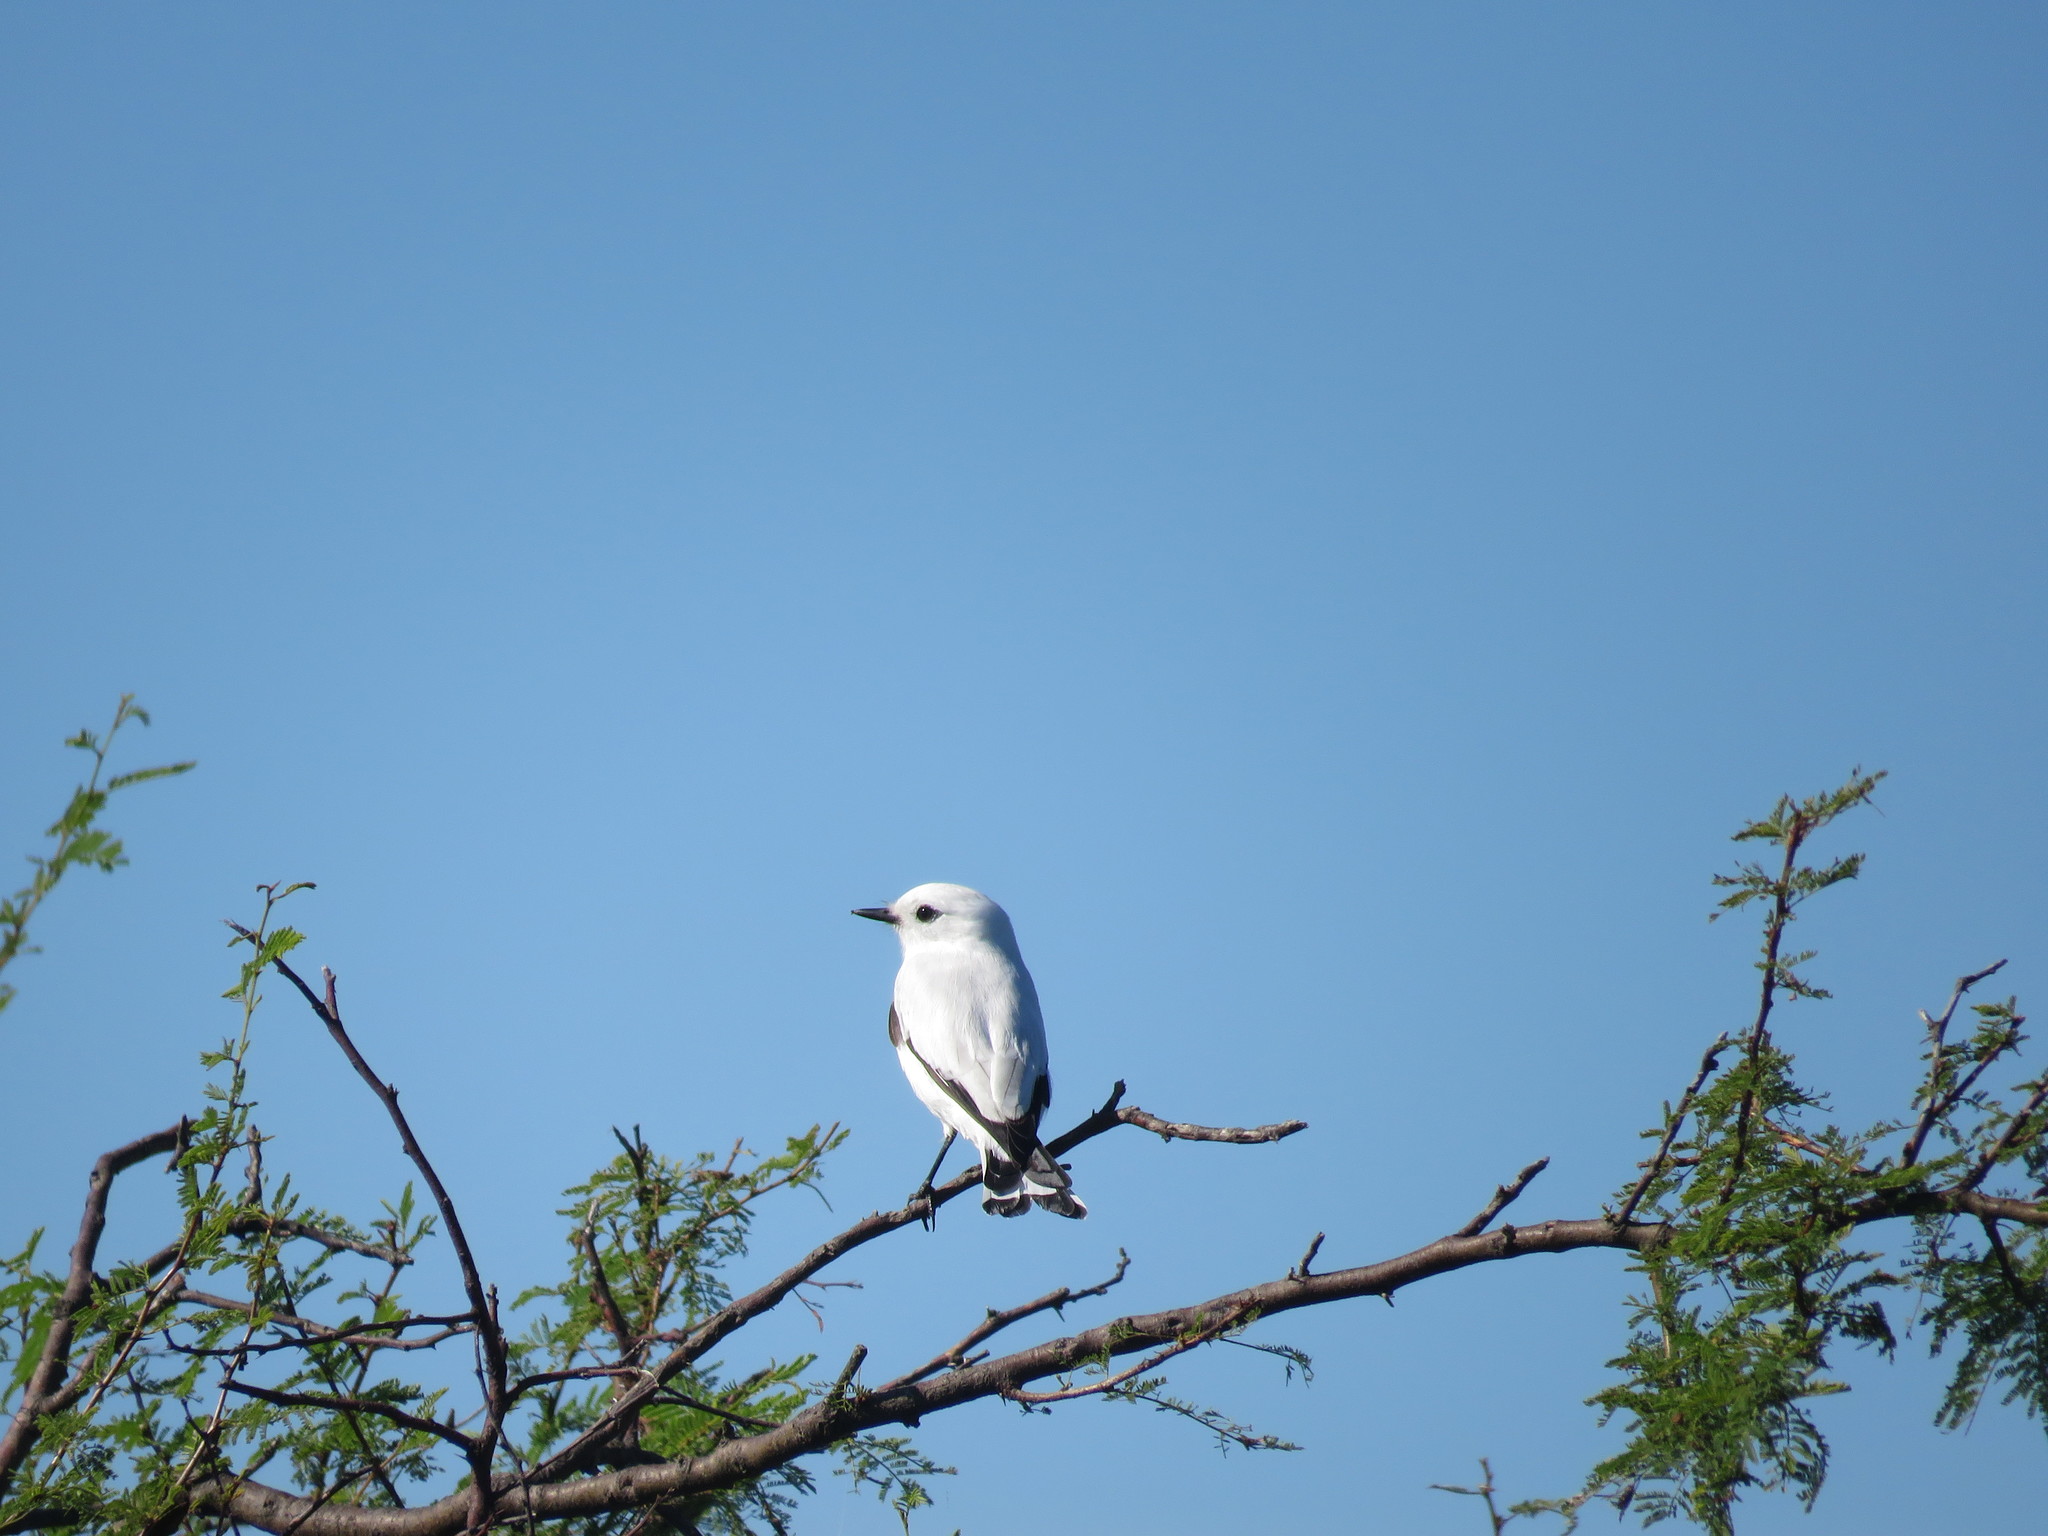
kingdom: Animalia
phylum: Chordata
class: Aves
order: Passeriformes
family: Tyrannidae
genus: Xolmis
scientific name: Xolmis irupero
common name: White monjita
